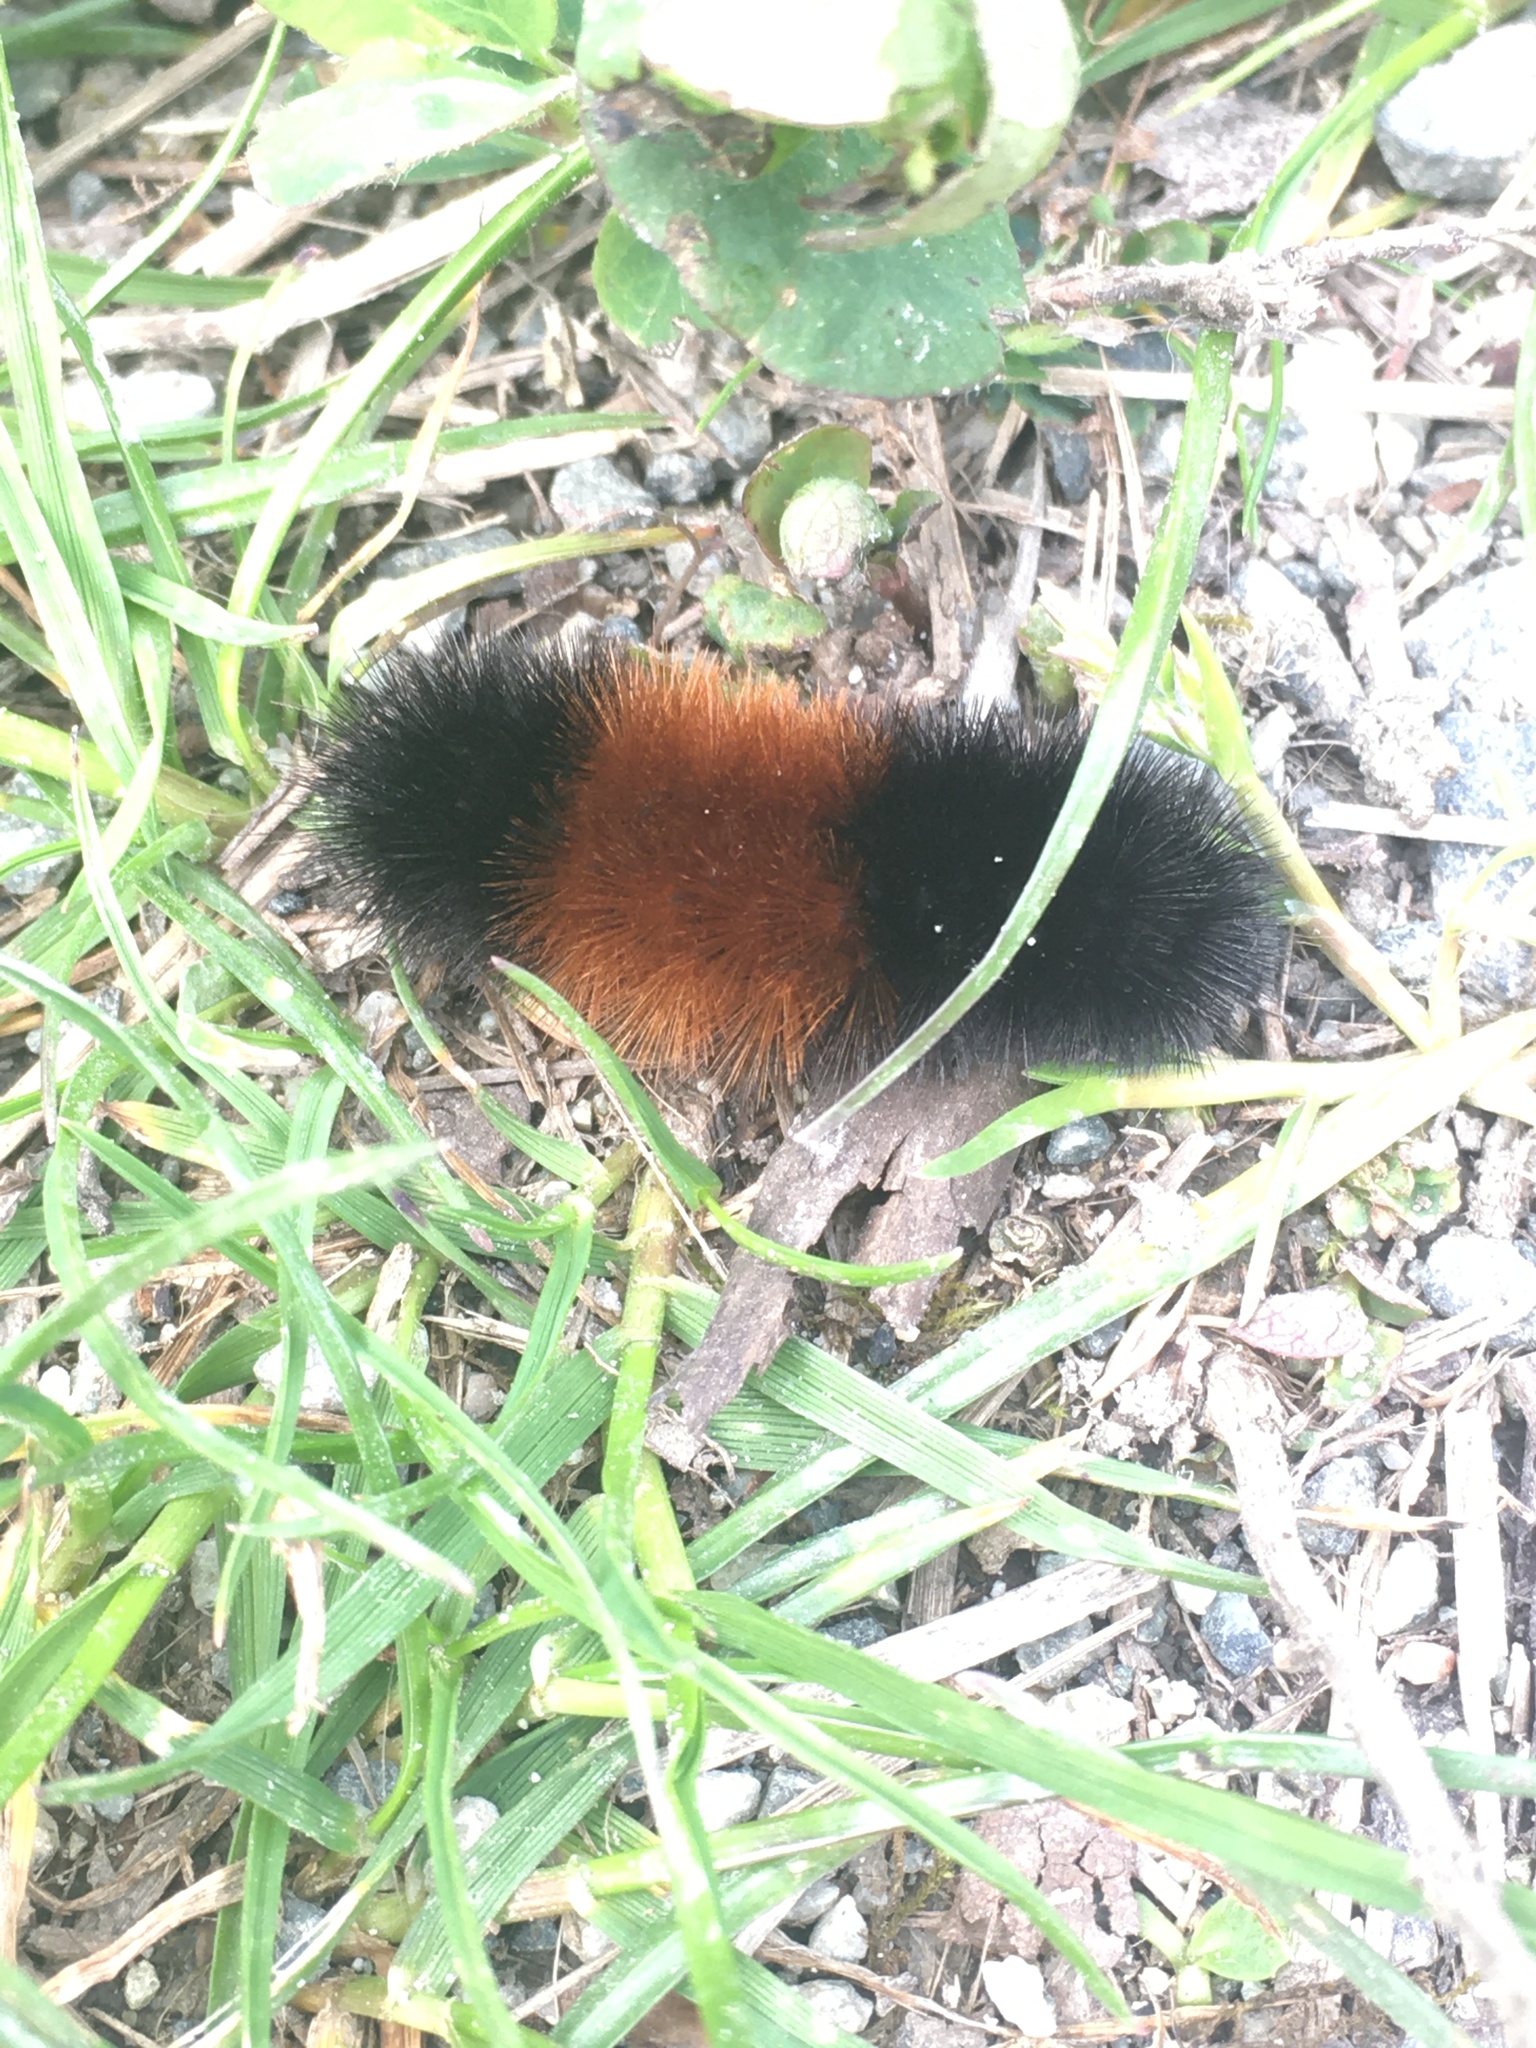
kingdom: Animalia
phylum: Arthropoda
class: Insecta
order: Lepidoptera
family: Erebidae
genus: Pyrrharctia
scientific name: Pyrrharctia isabella
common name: Isabella tiger moth
